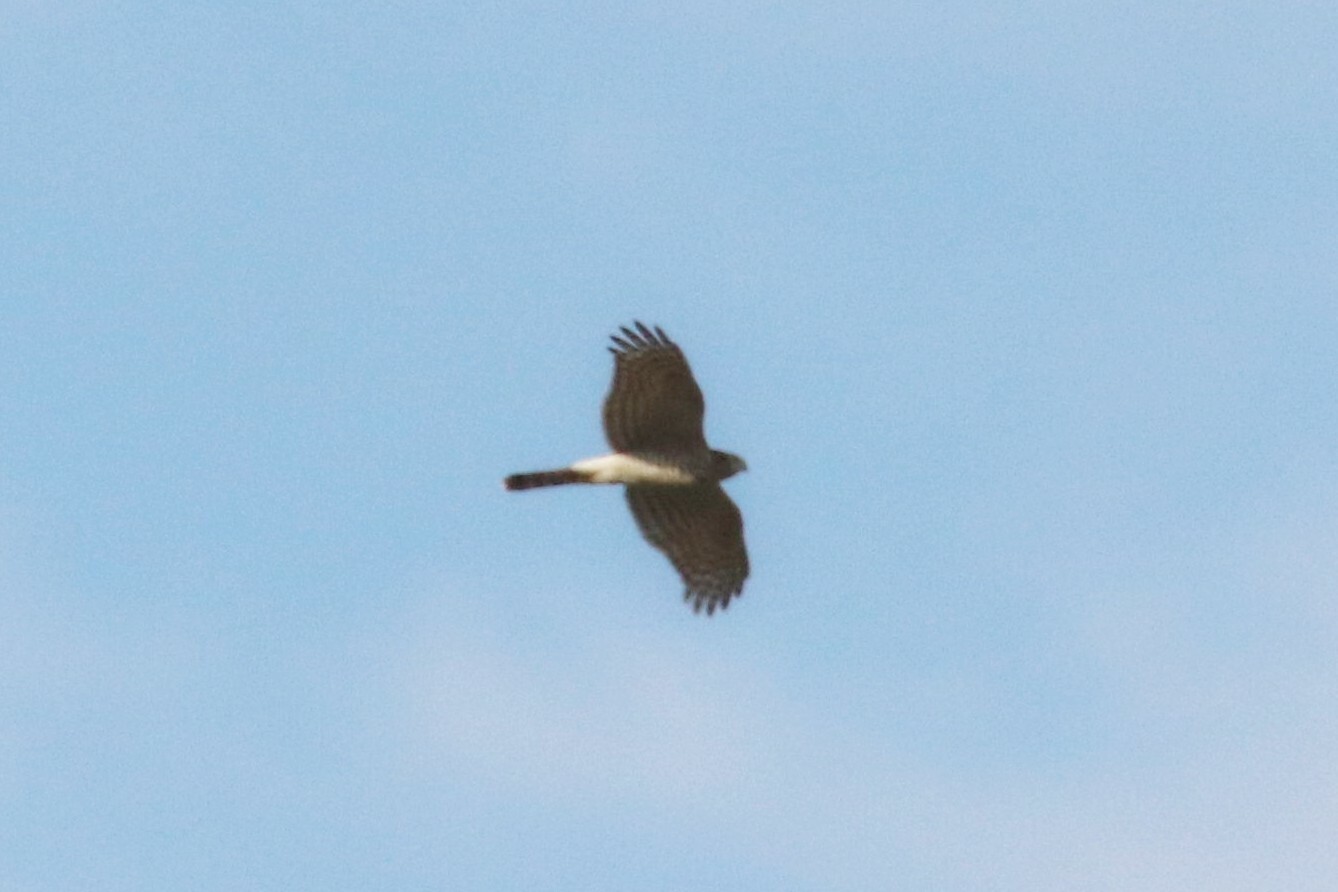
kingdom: Animalia
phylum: Chordata
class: Aves
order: Accipitriformes
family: Accipitridae
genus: Accipiter
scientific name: Accipiter nisus
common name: Eurasian sparrowhawk
